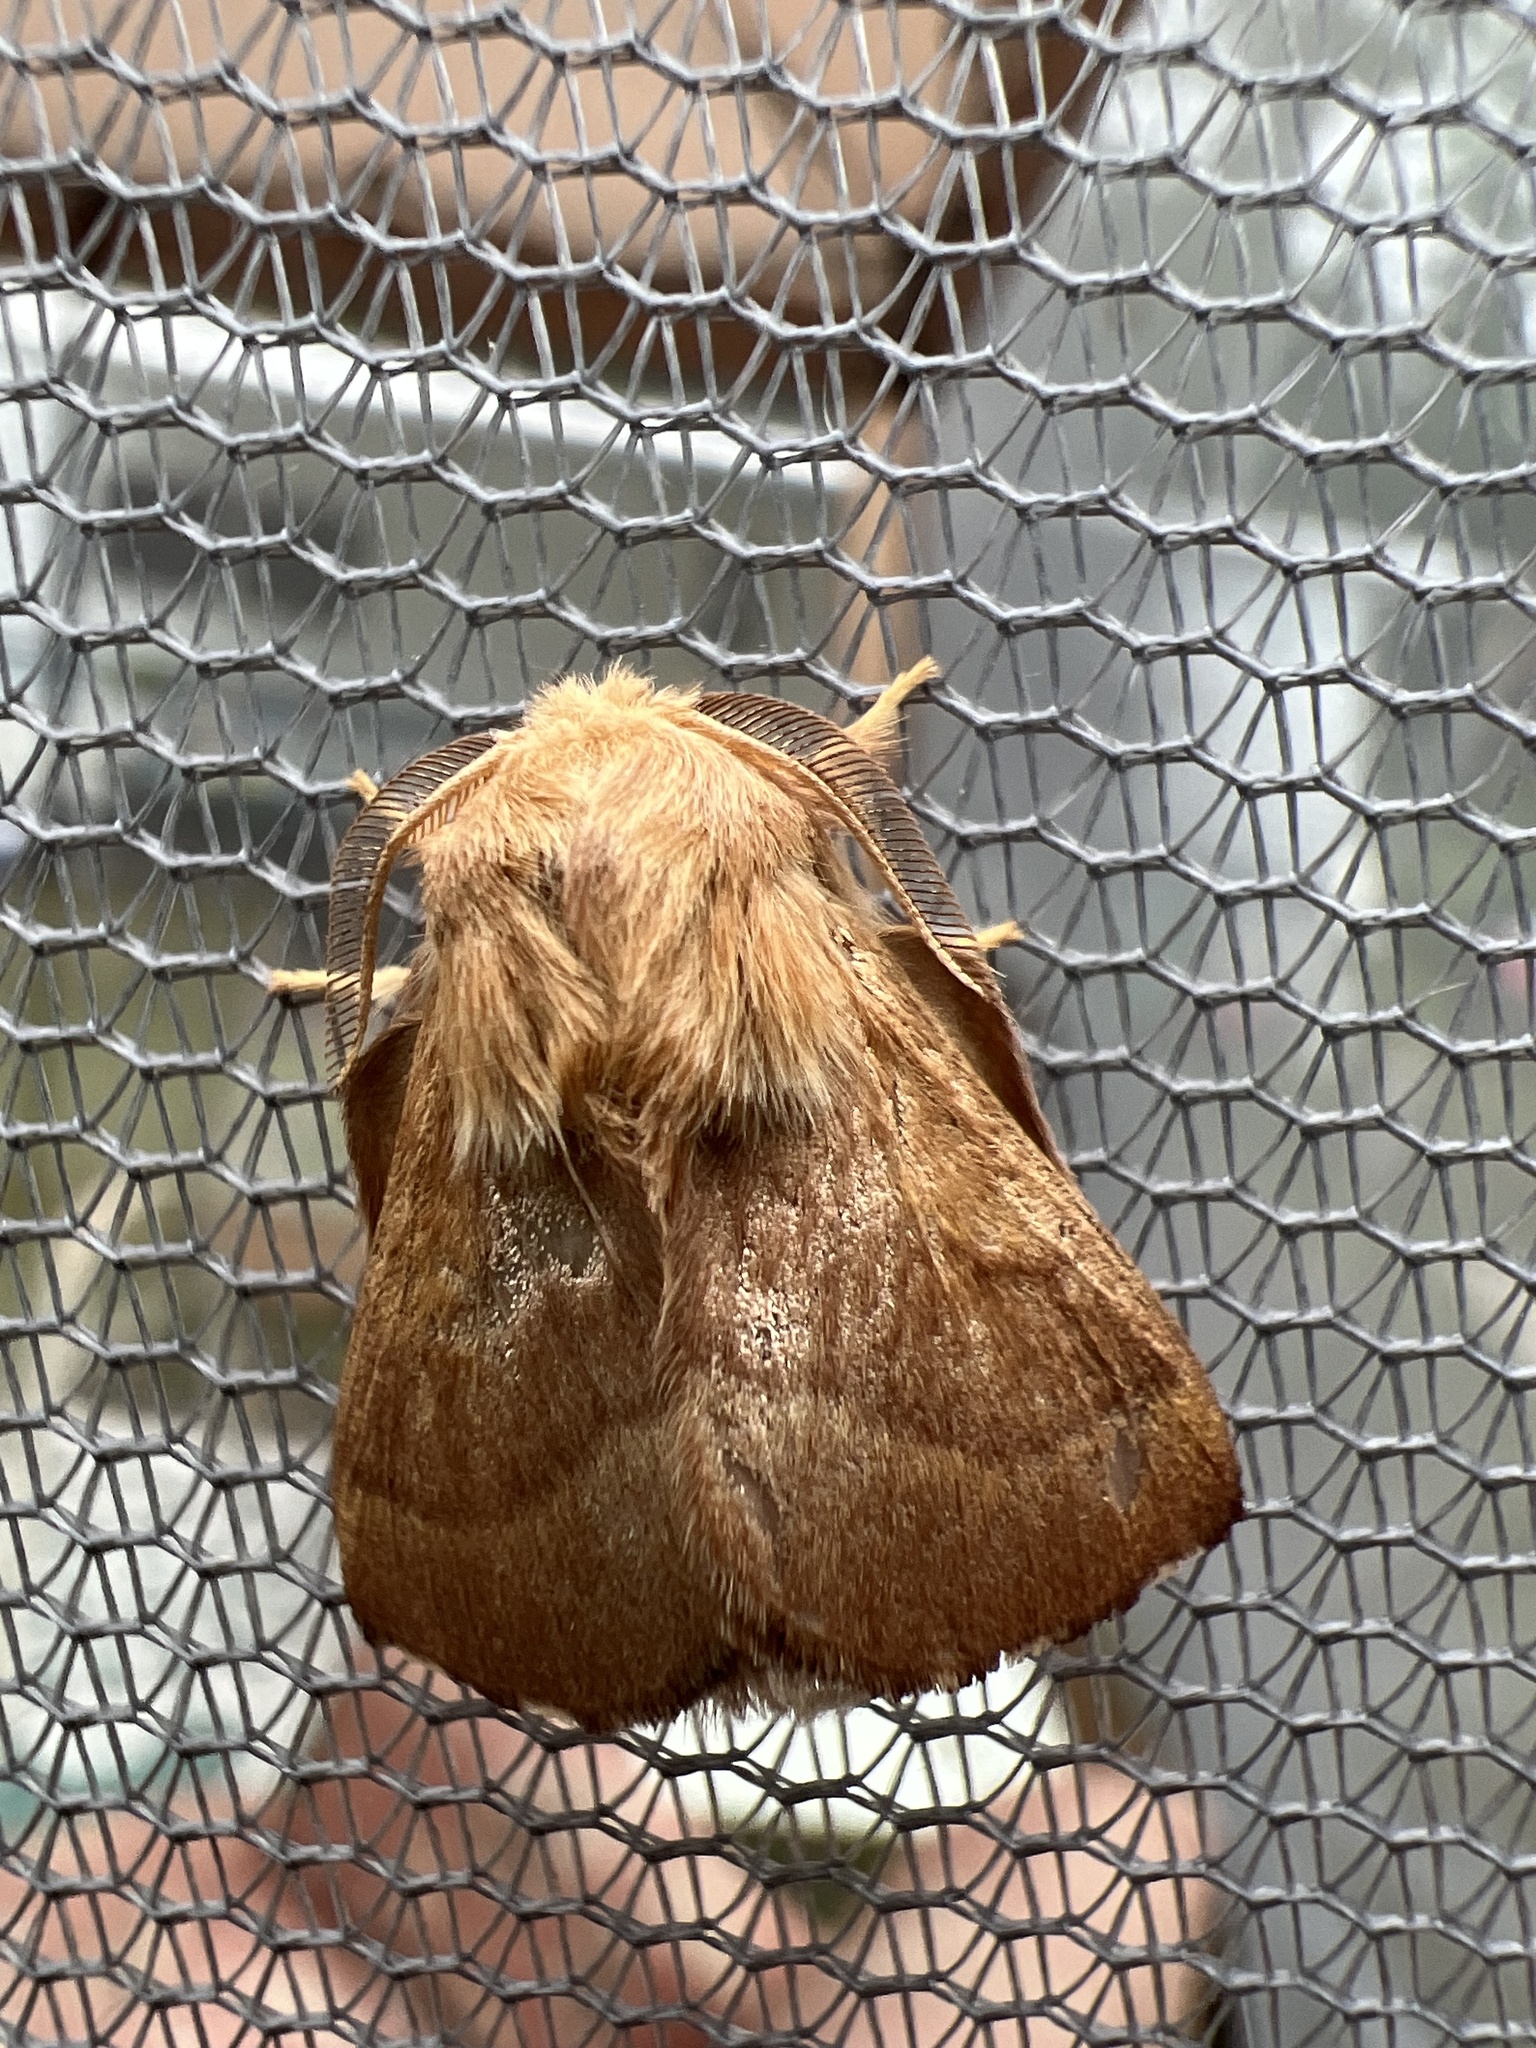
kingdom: Animalia
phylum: Arthropoda
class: Insecta
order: Lepidoptera
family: Lasiocampidae
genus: Malacosoma
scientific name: Malacosoma disstria
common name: Forest tent caterpillar
